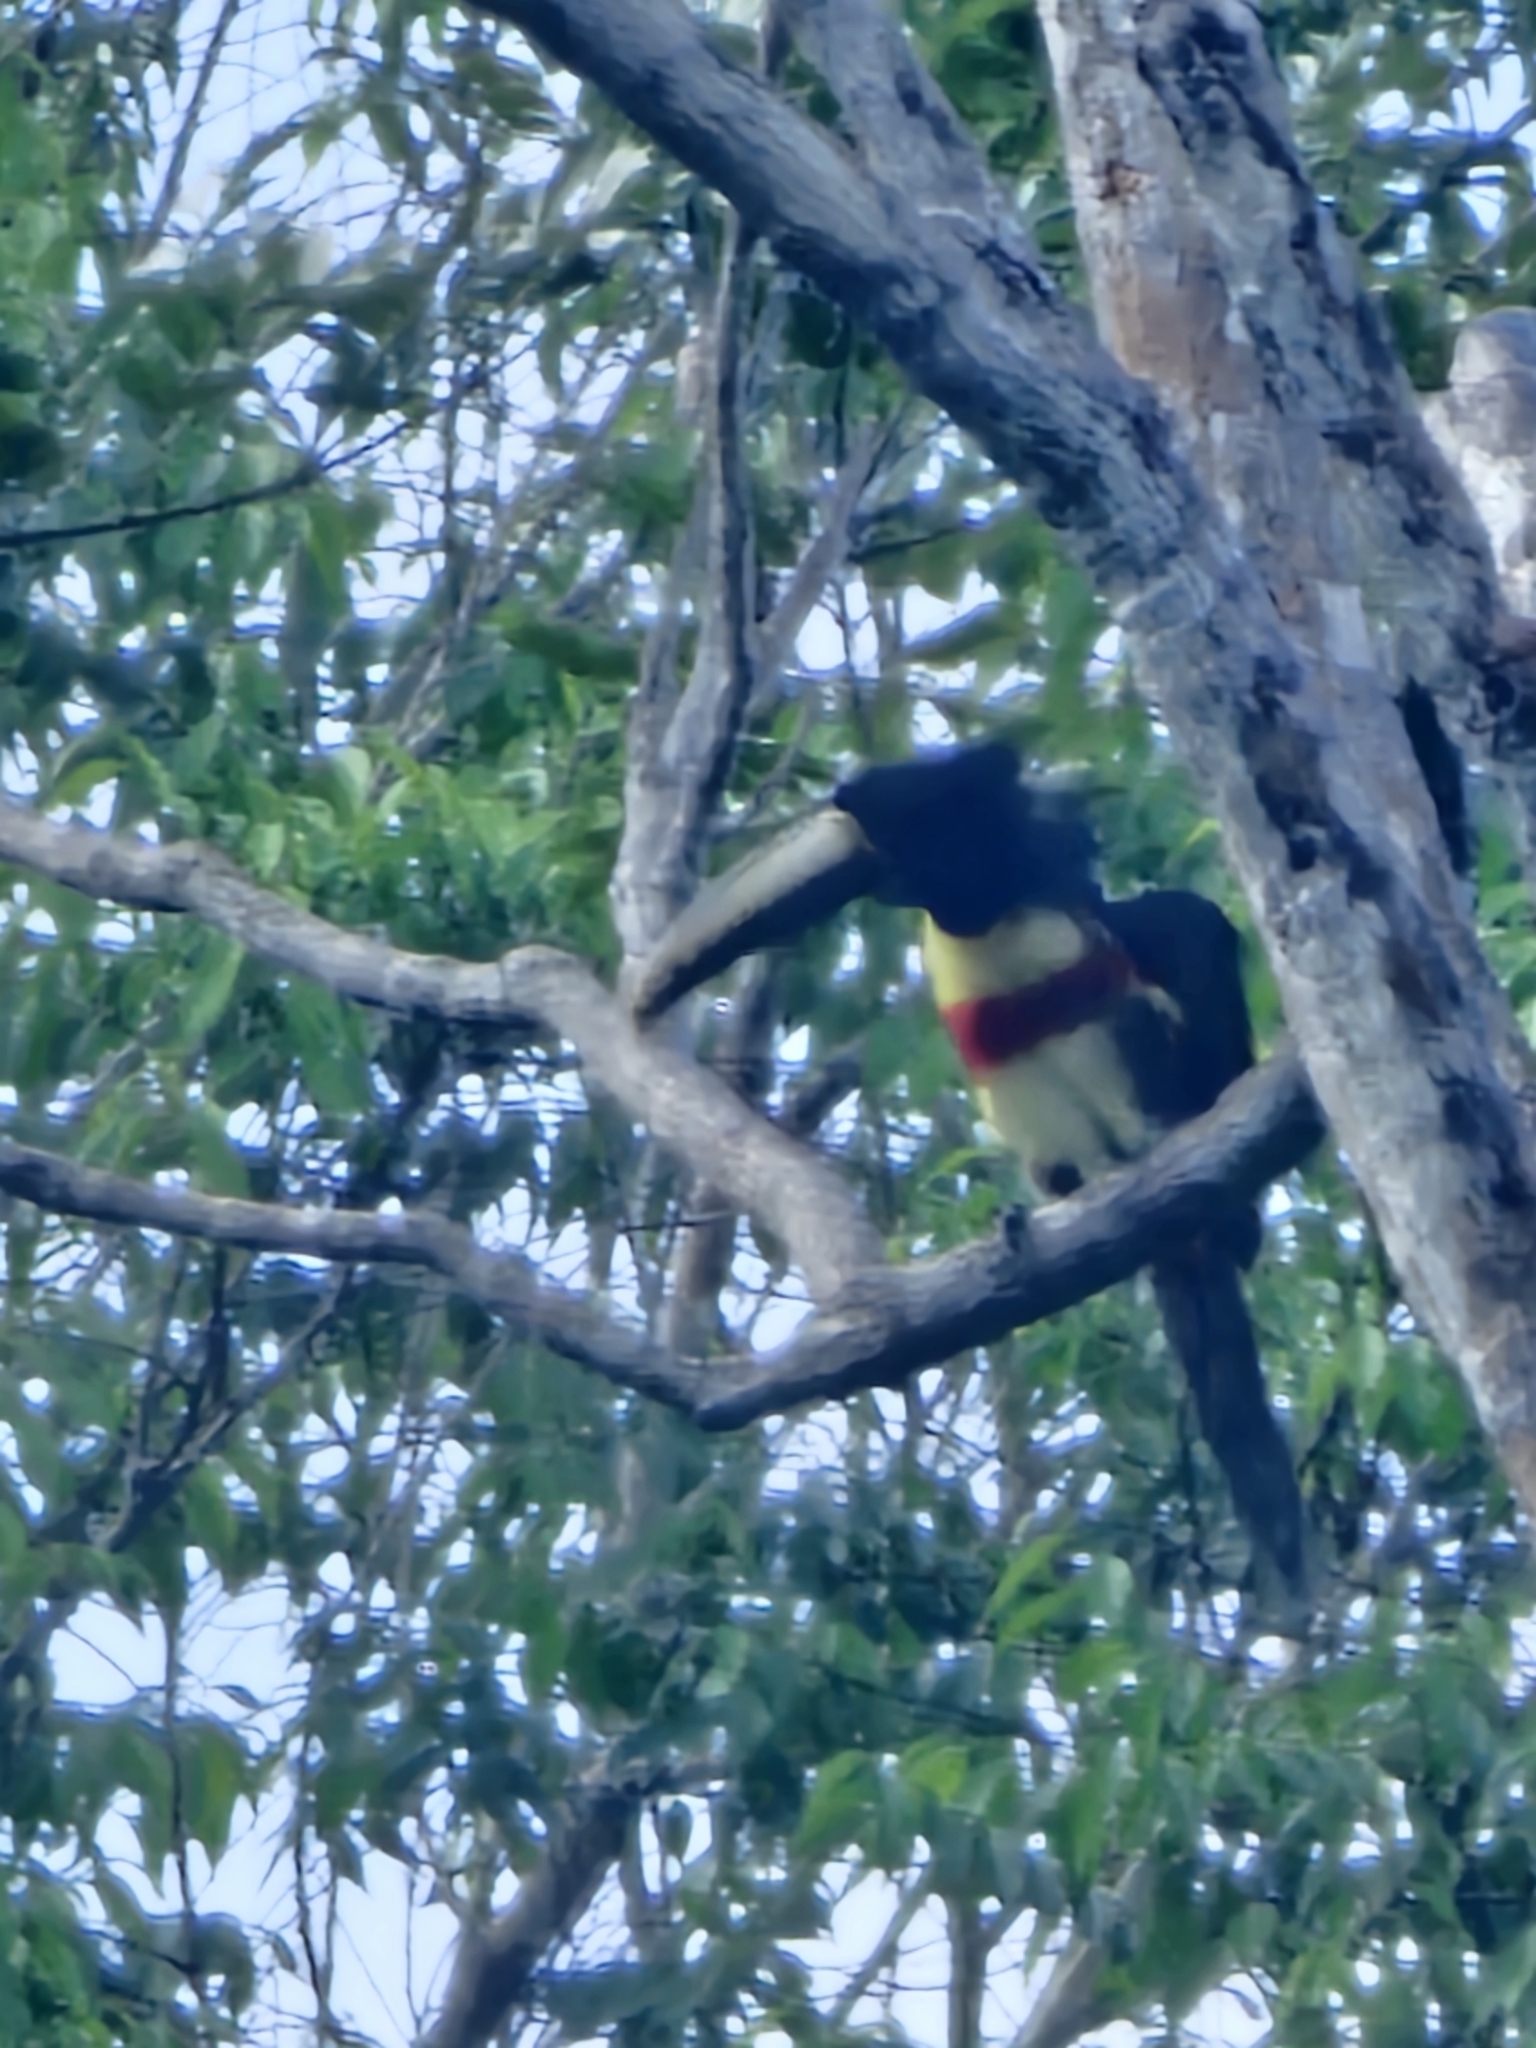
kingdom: Animalia
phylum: Chordata
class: Aves
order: Piciformes
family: Ramphastidae
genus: Pteroglossus
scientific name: Pteroglossus aracari
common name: Black-necked aracari
